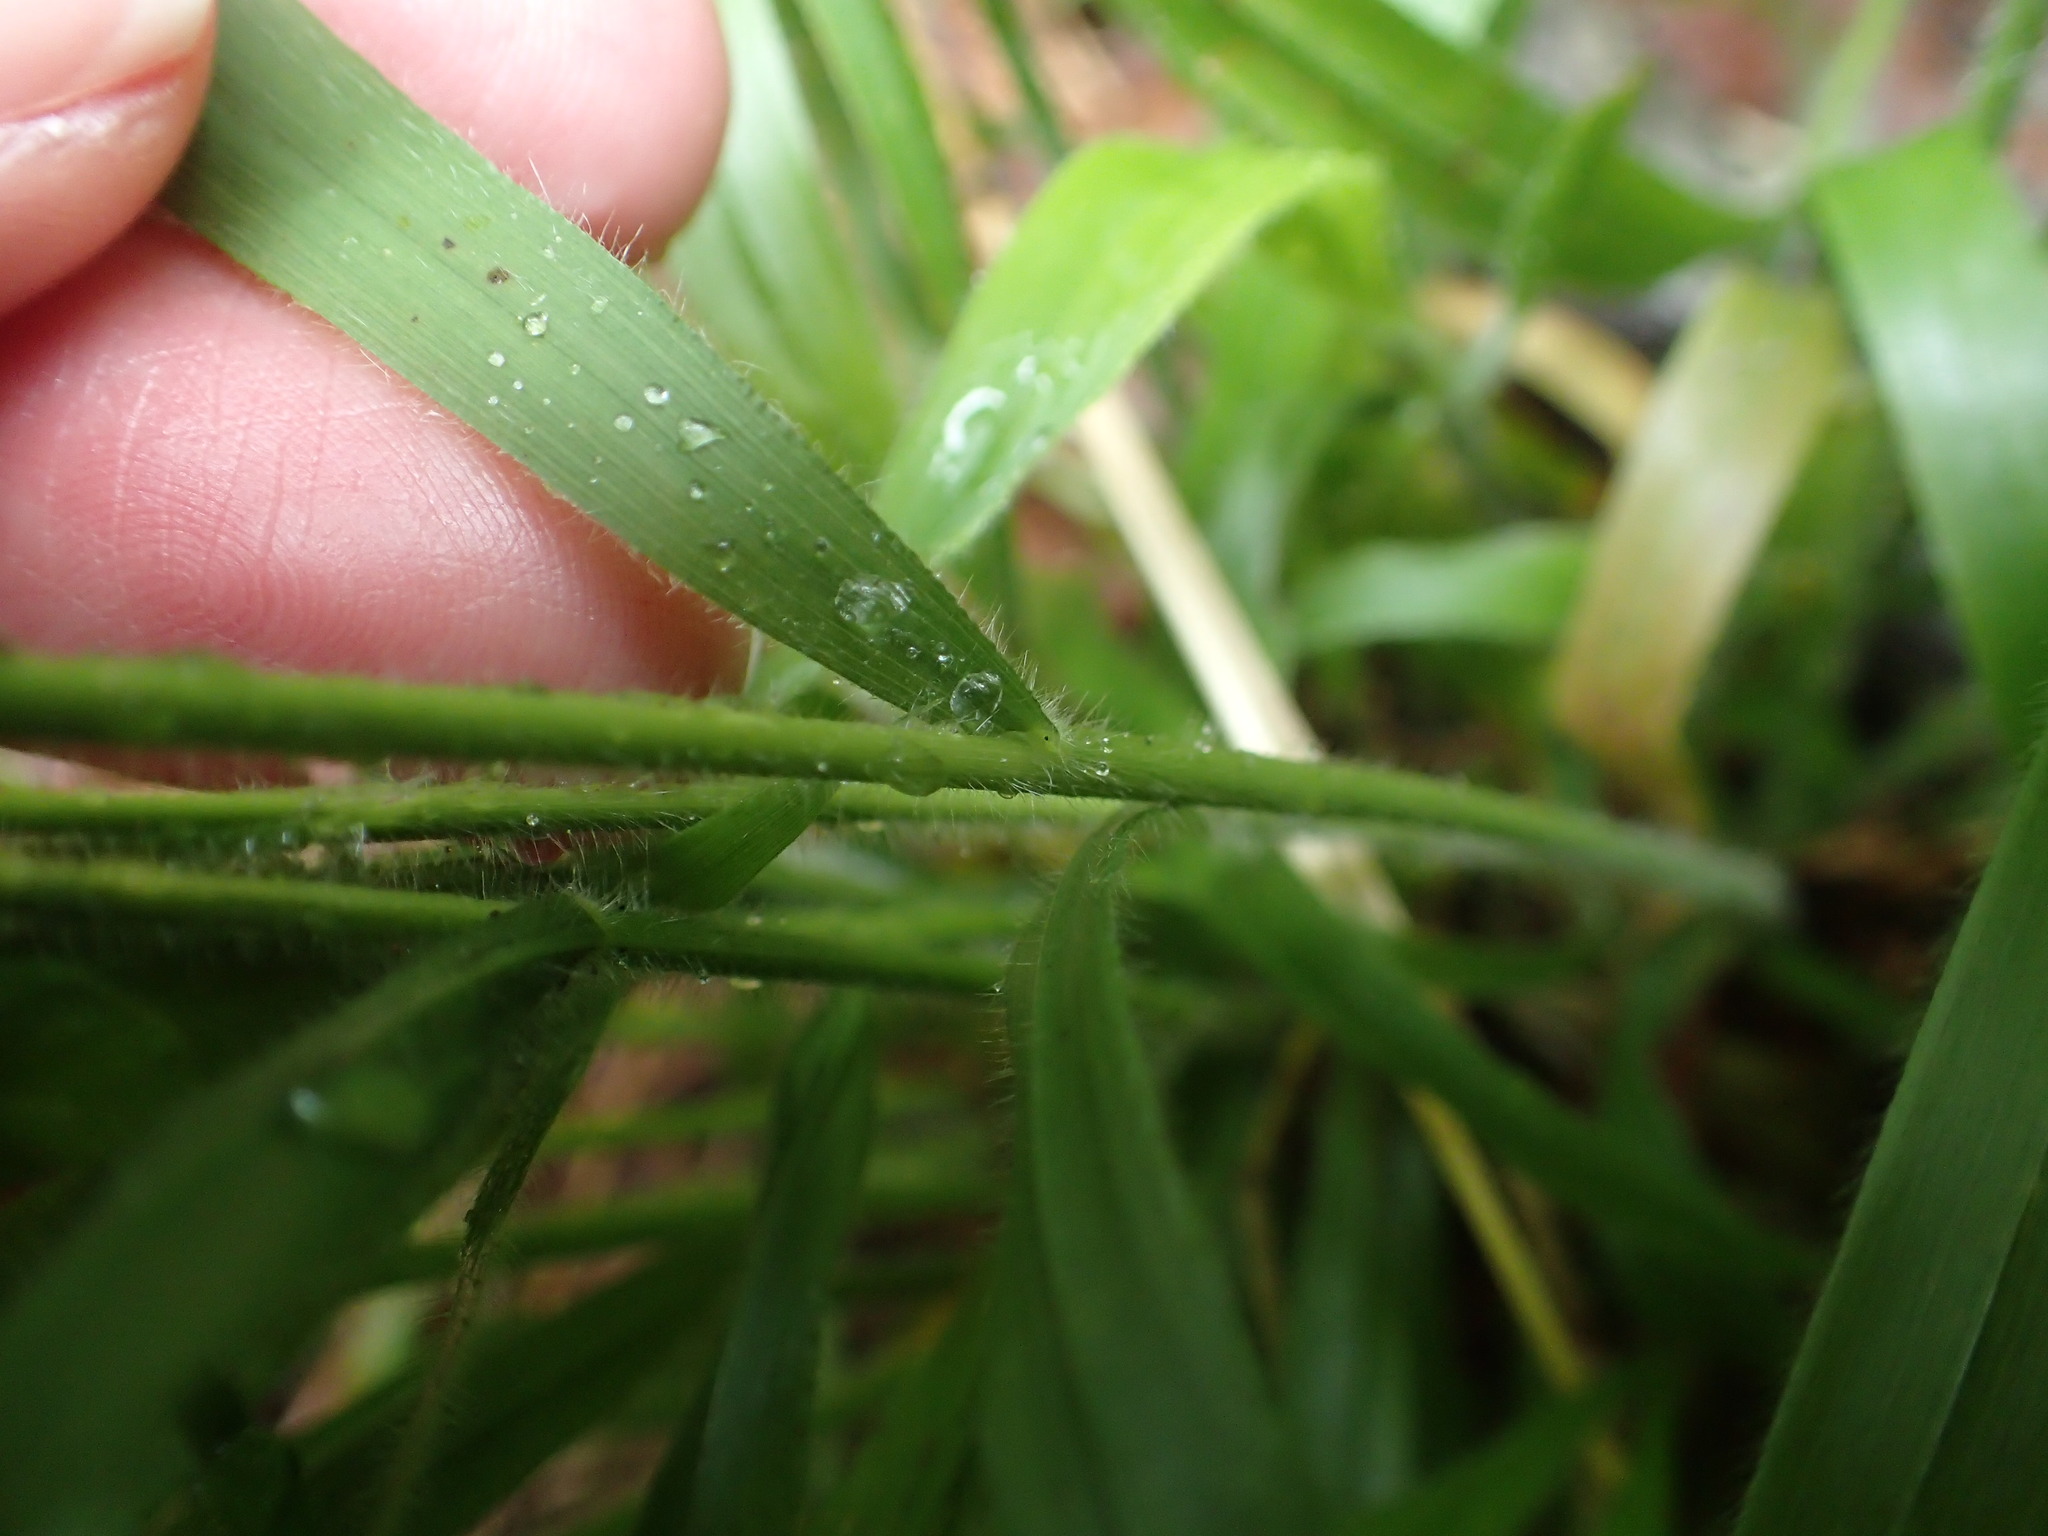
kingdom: Plantae
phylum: Tracheophyta
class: Liliopsida
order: Poales
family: Poaceae
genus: Brachypodium
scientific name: Brachypodium sylvaticum
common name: False-brome
